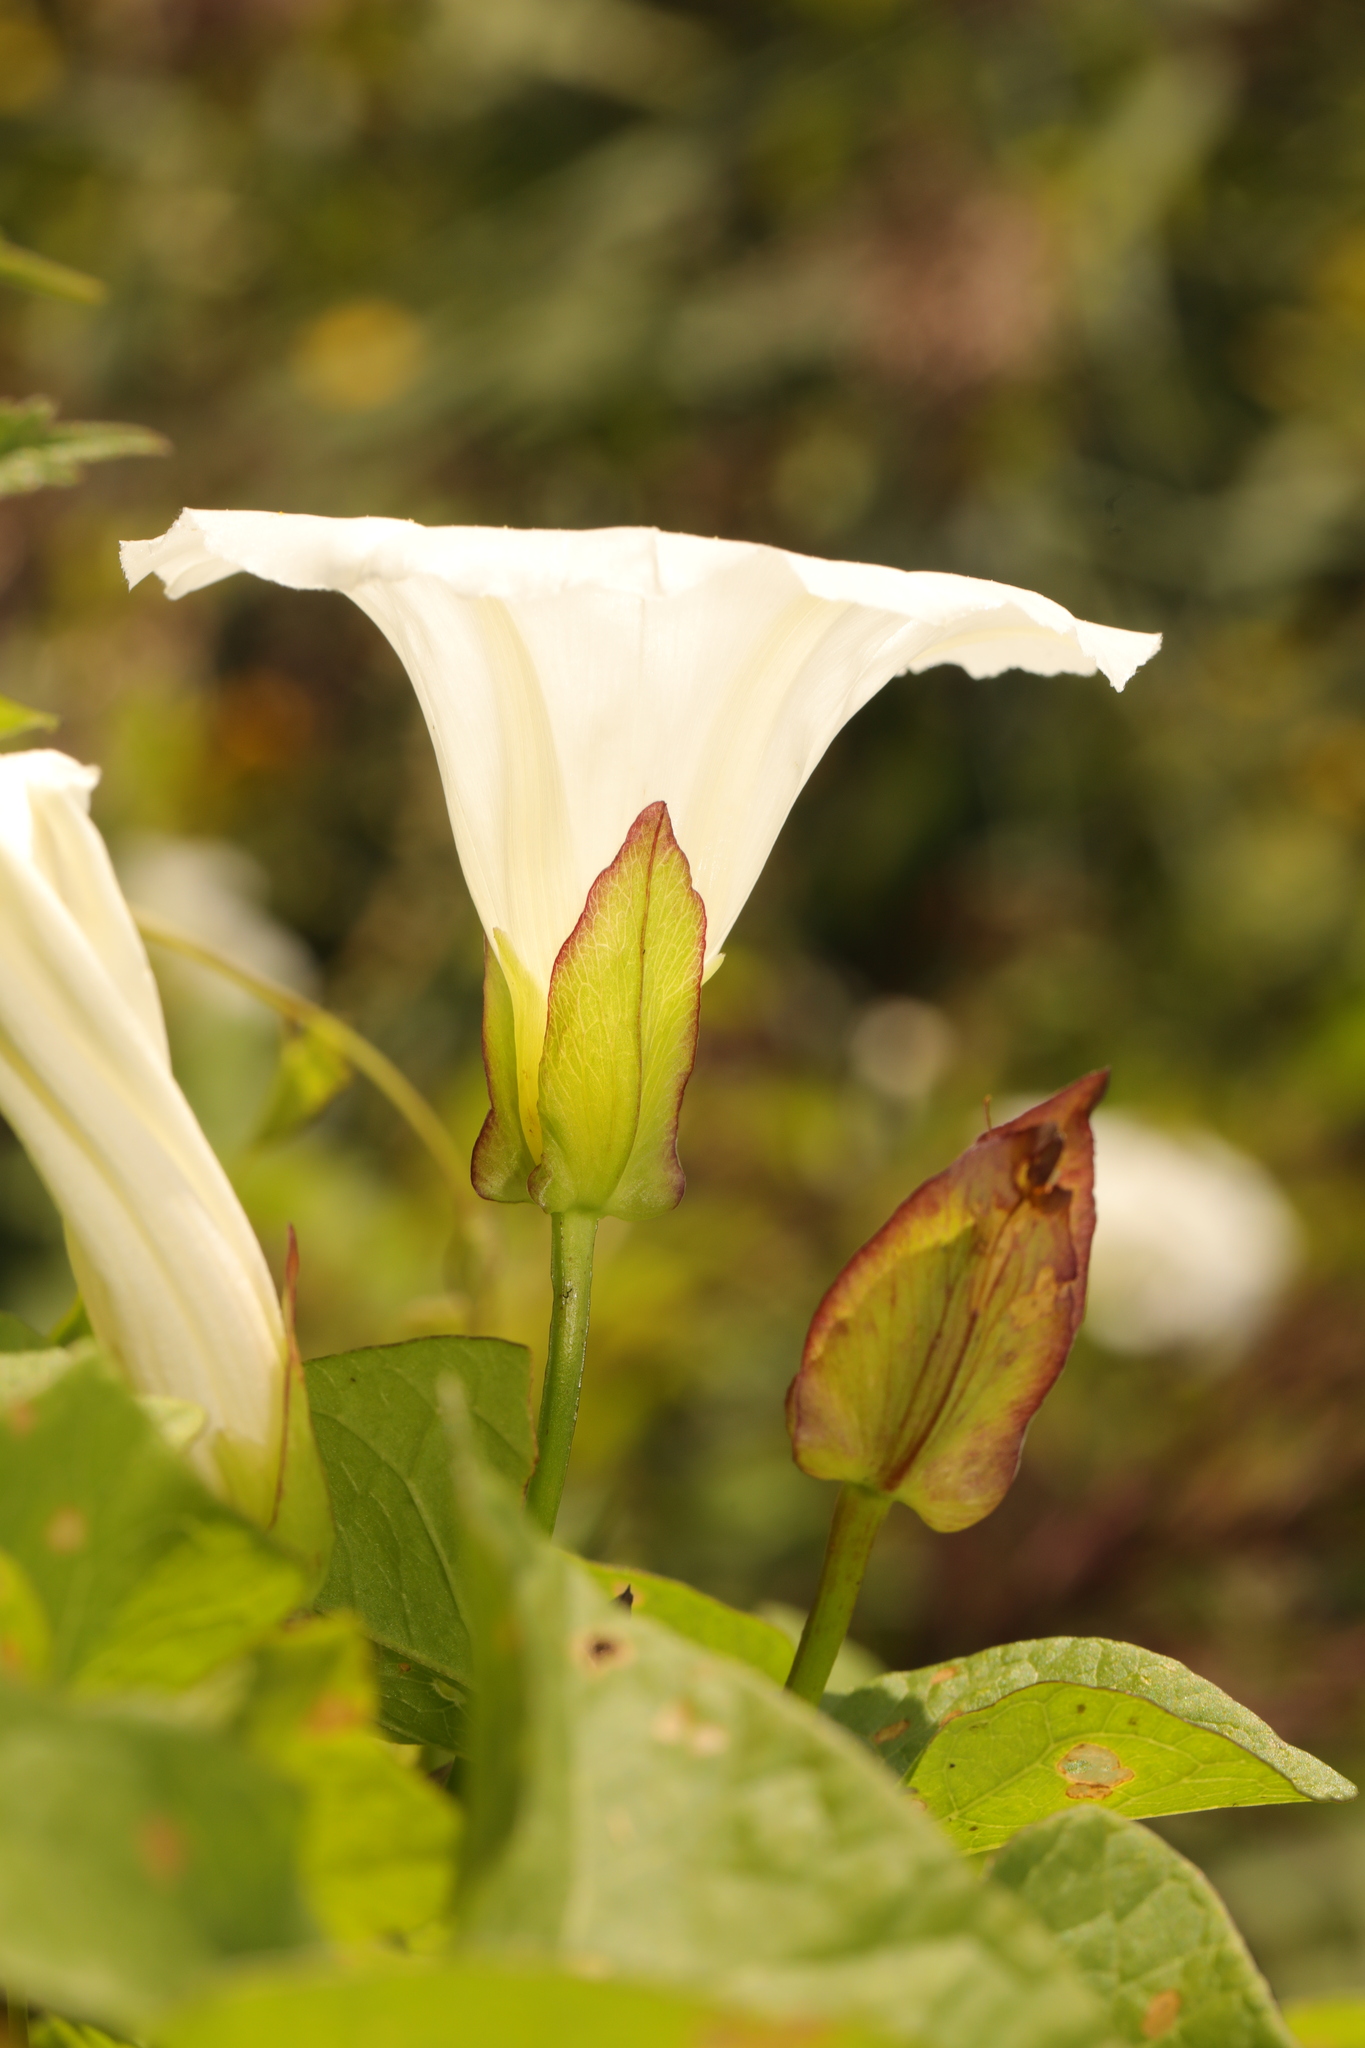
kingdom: Plantae
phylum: Tracheophyta
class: Magnoliopsida
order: Solanales
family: Convolvulaceae
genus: Calystegia
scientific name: Calystegia sepium
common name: Hedge bindweed
